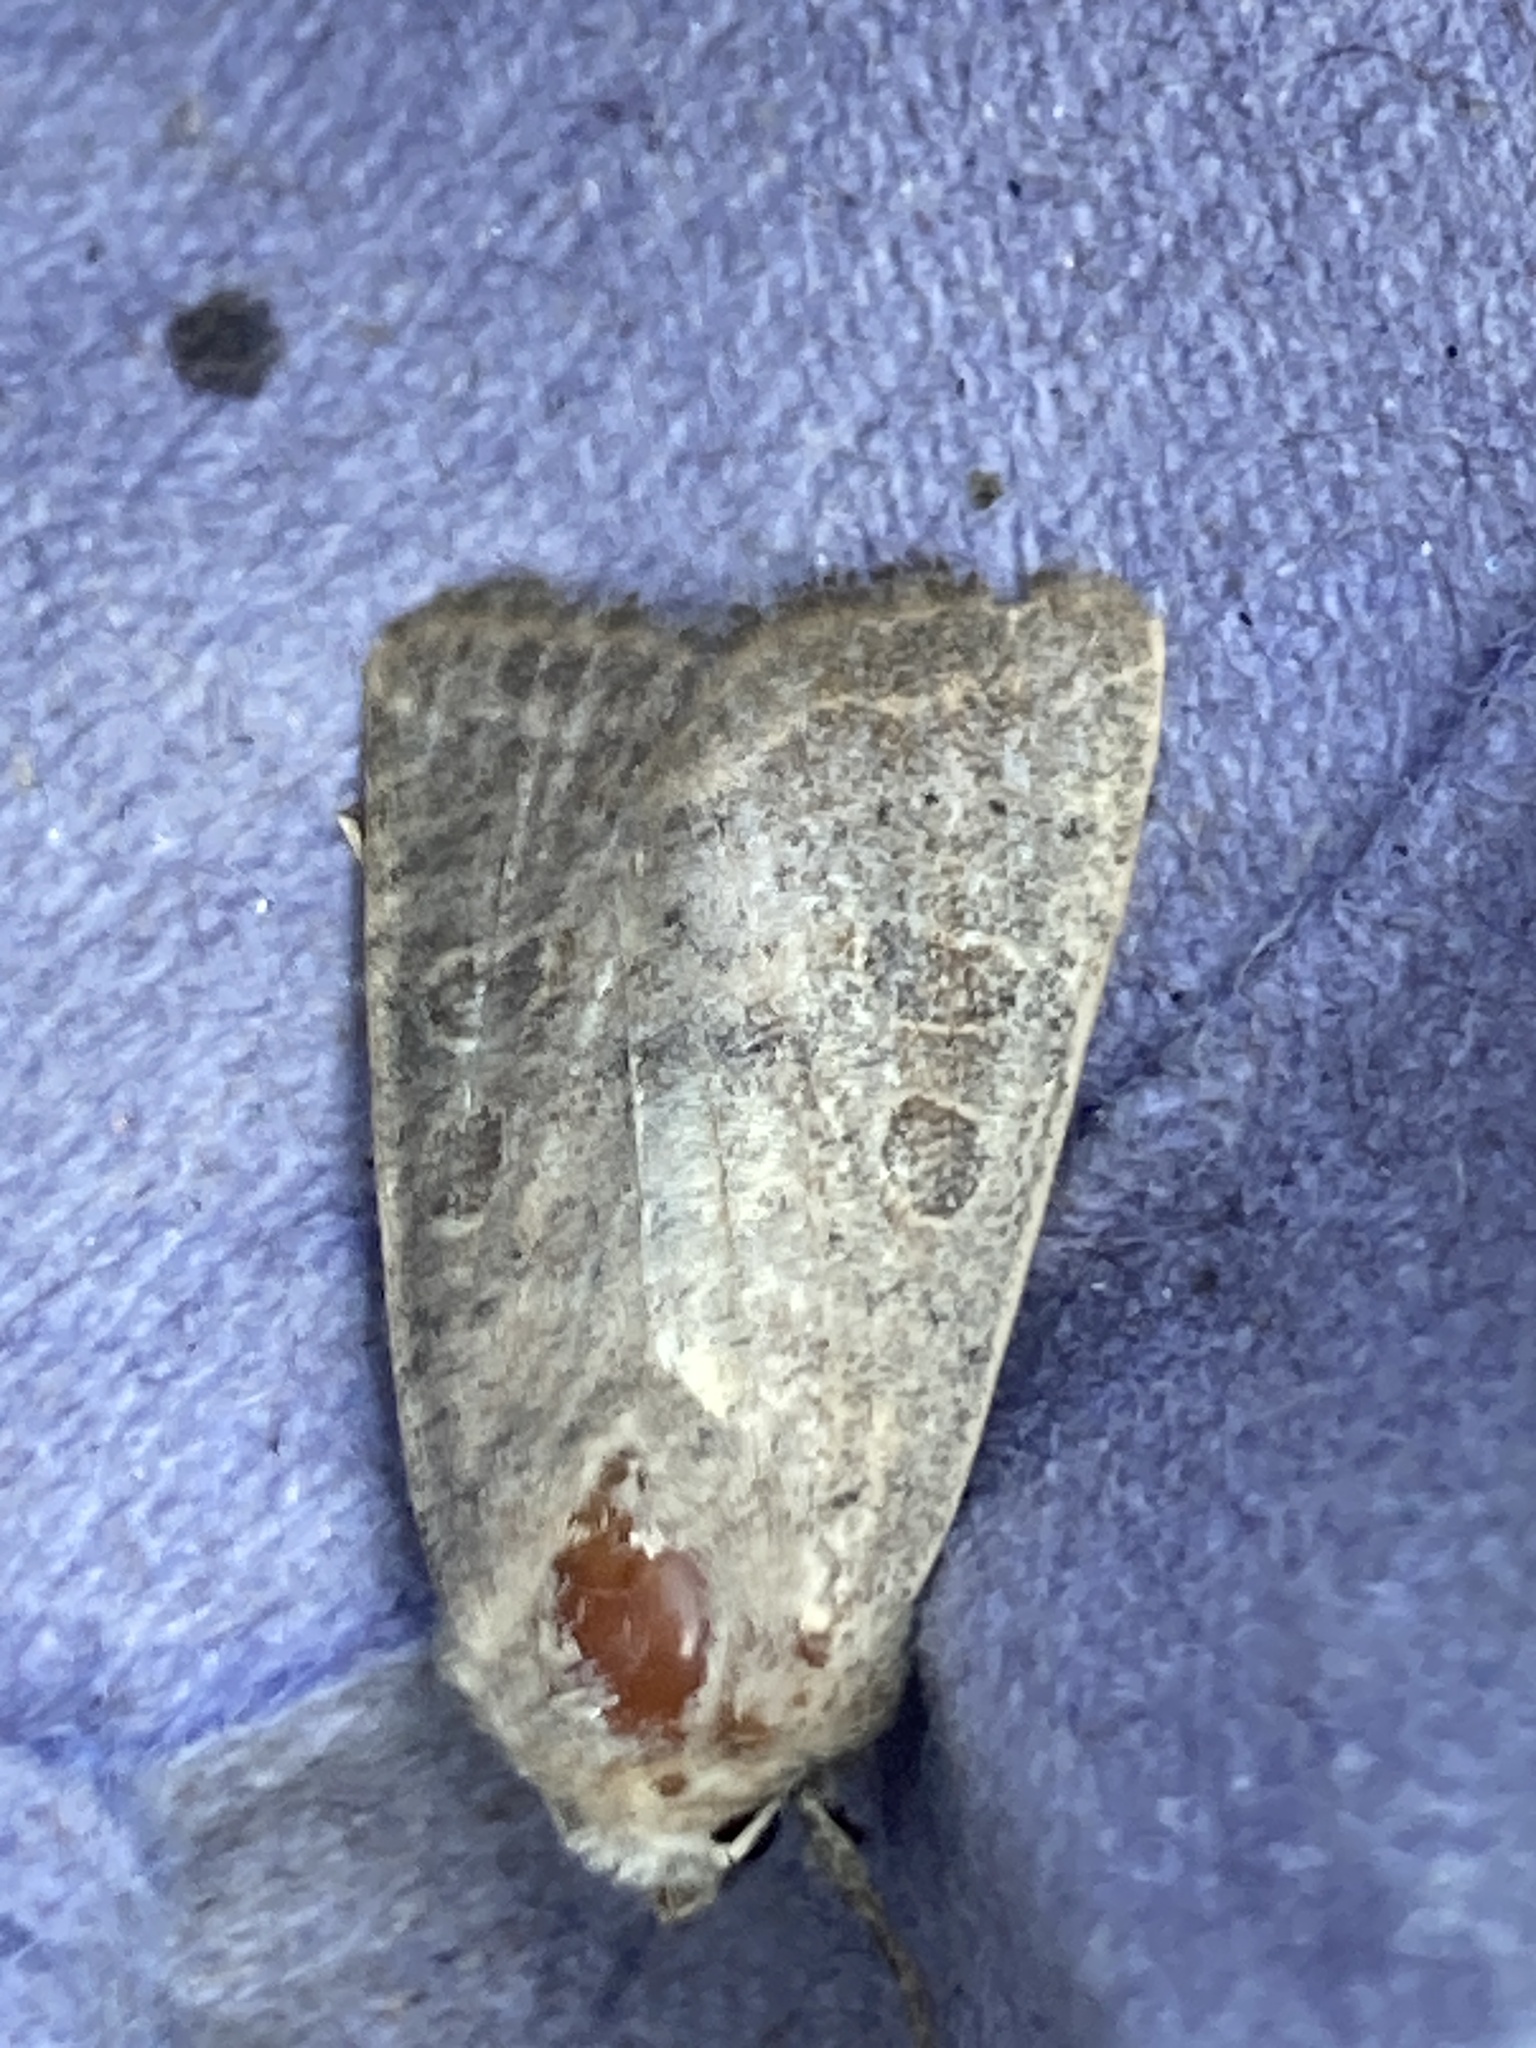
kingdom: Animalia
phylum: Arthropoda
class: Insecta
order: Lepidoptera
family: Noctuidae
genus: Hoplodrina
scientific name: Hoplodrina ambigua
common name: Vine's rustic
